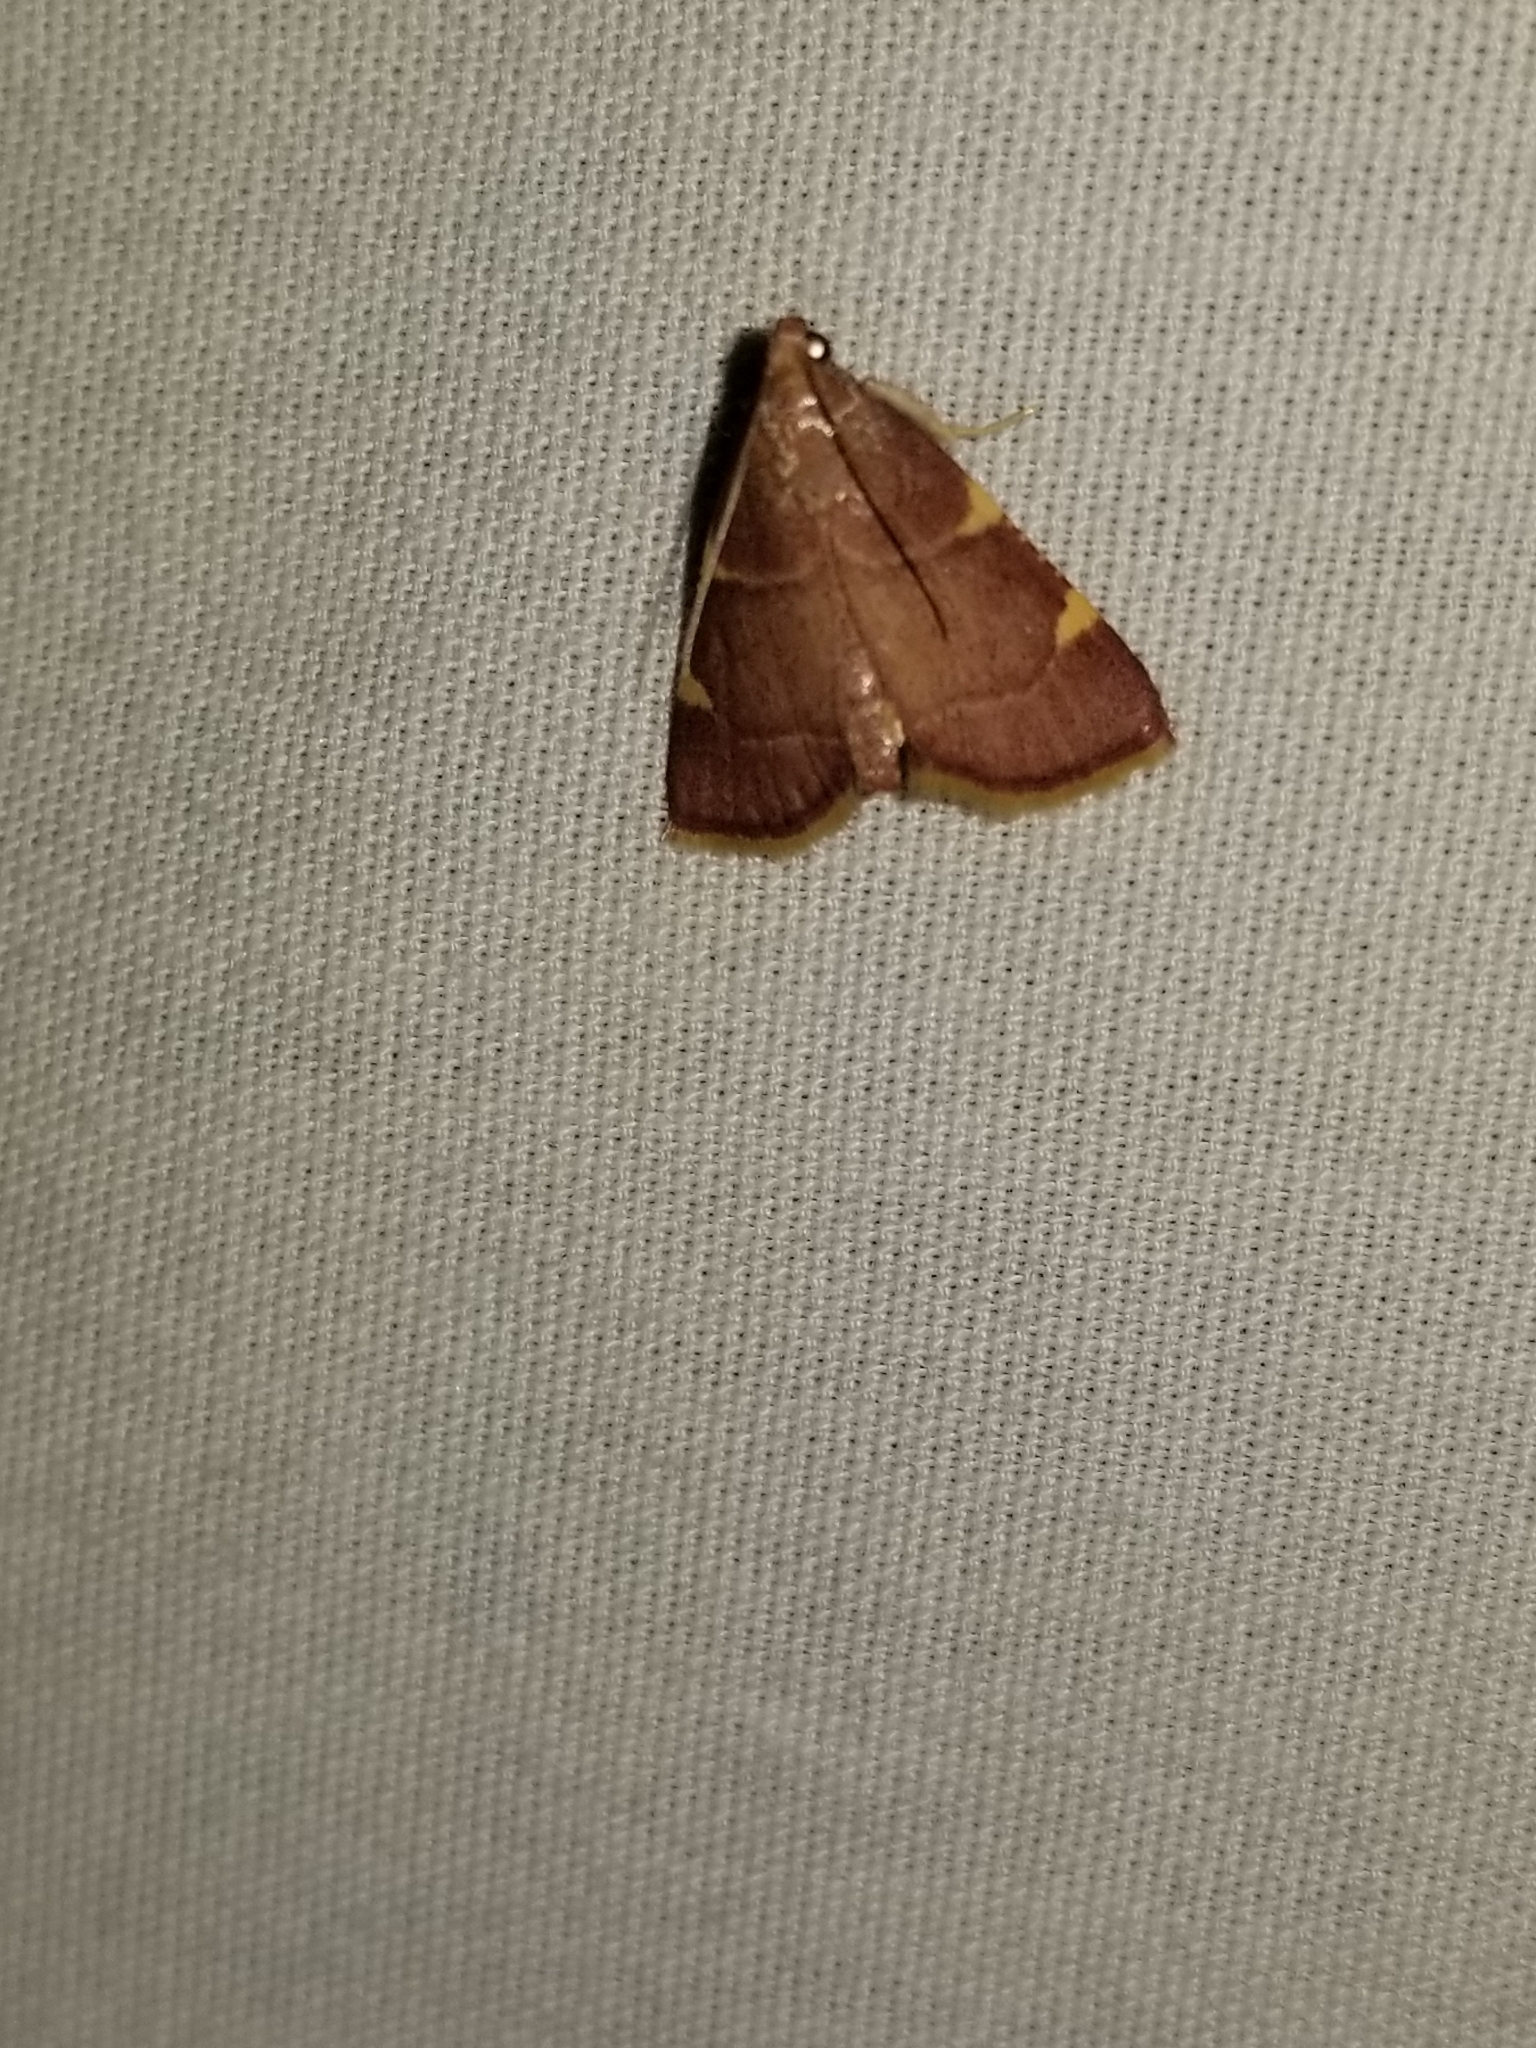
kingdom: Animalia
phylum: Arthropoda
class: Insecta
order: Lepidoptera
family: Pyralidae
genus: Hypsopygia
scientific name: Hypsopygia olinalis
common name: Yellow-fringed dolichomia moth
